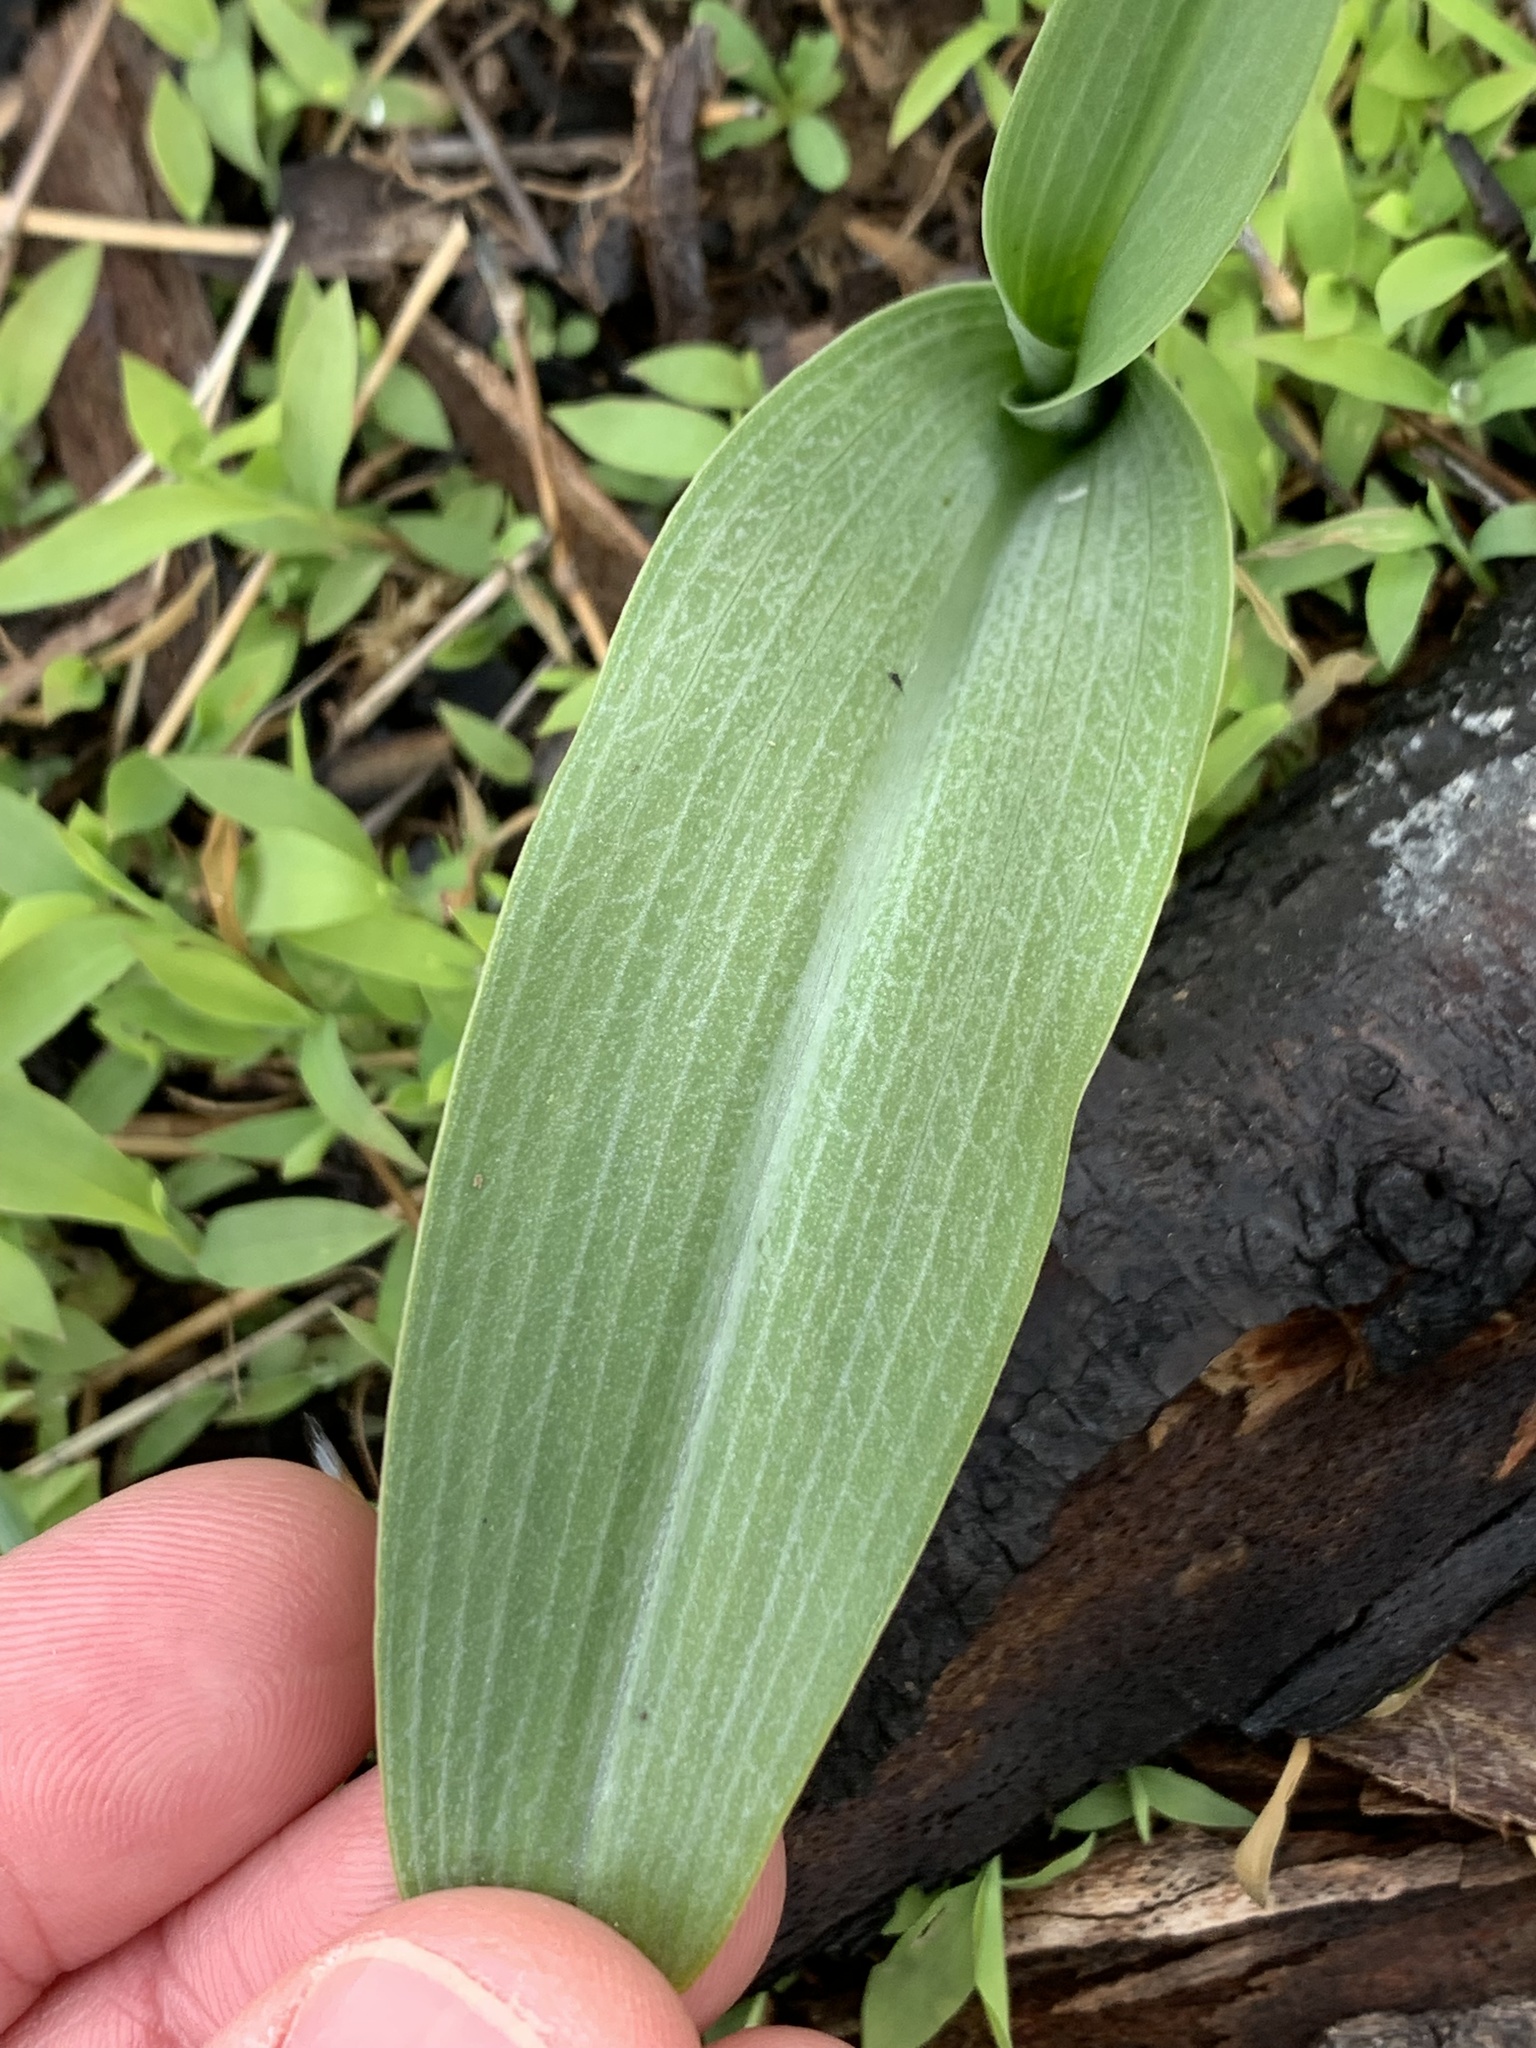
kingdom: Plantae
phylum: Tracheophyta
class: Liliopsida
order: Asparagales
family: Orchidaceae
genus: Platanthera
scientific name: Platanthera lacera
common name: Green fringed orchid
